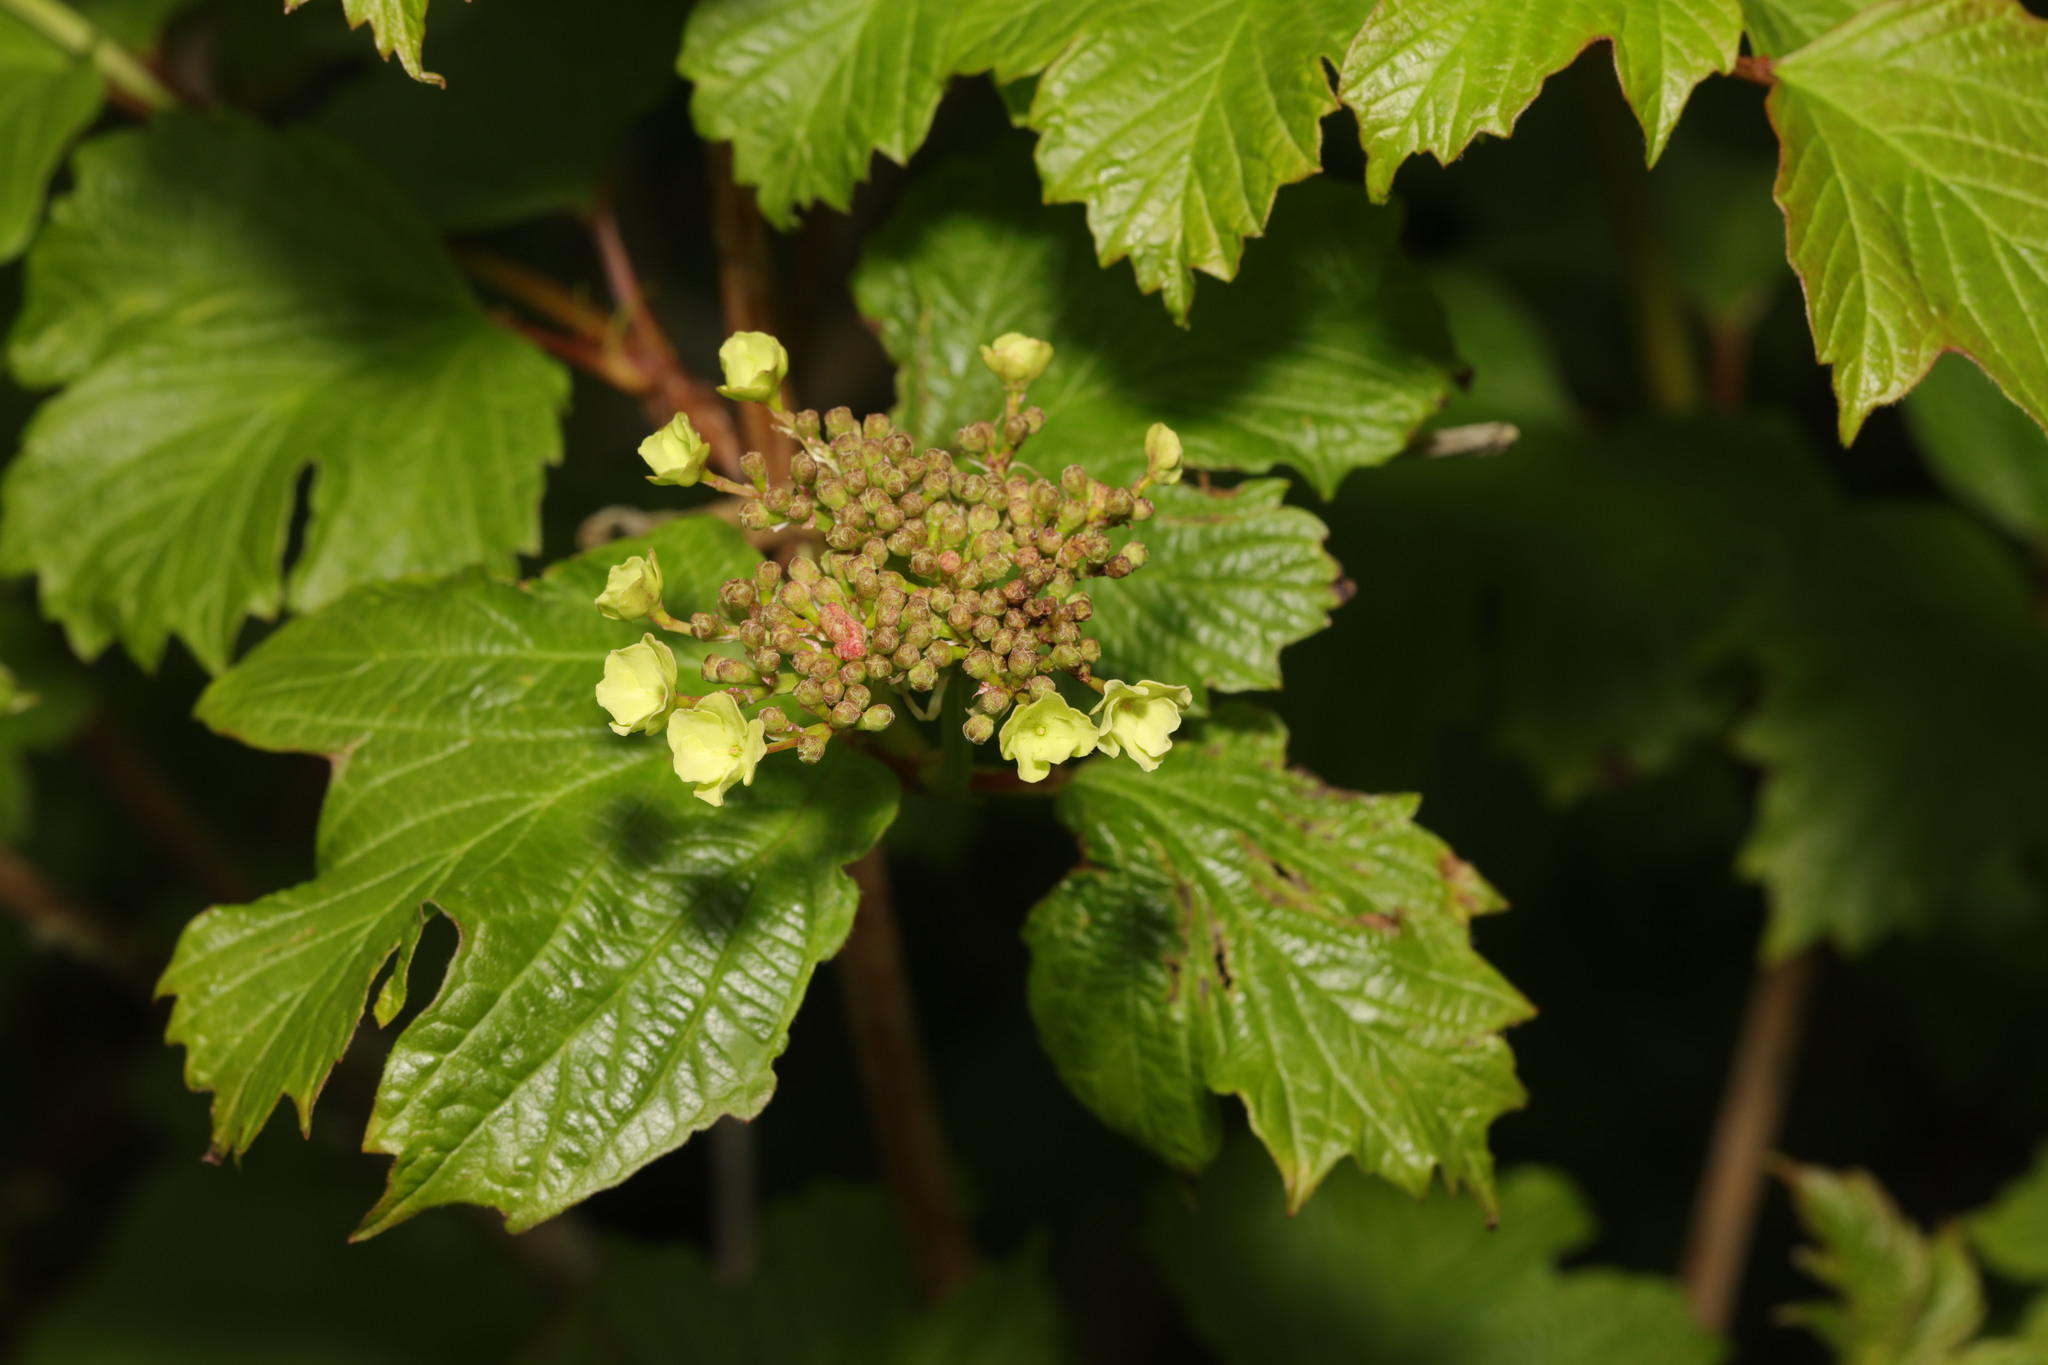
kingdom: Plantae
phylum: Tracheophyta
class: Magnoliopsida
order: Dipsacales
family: Viburnaceae
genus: Viburnum
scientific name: Viburnum opulus
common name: Guelder-rose
